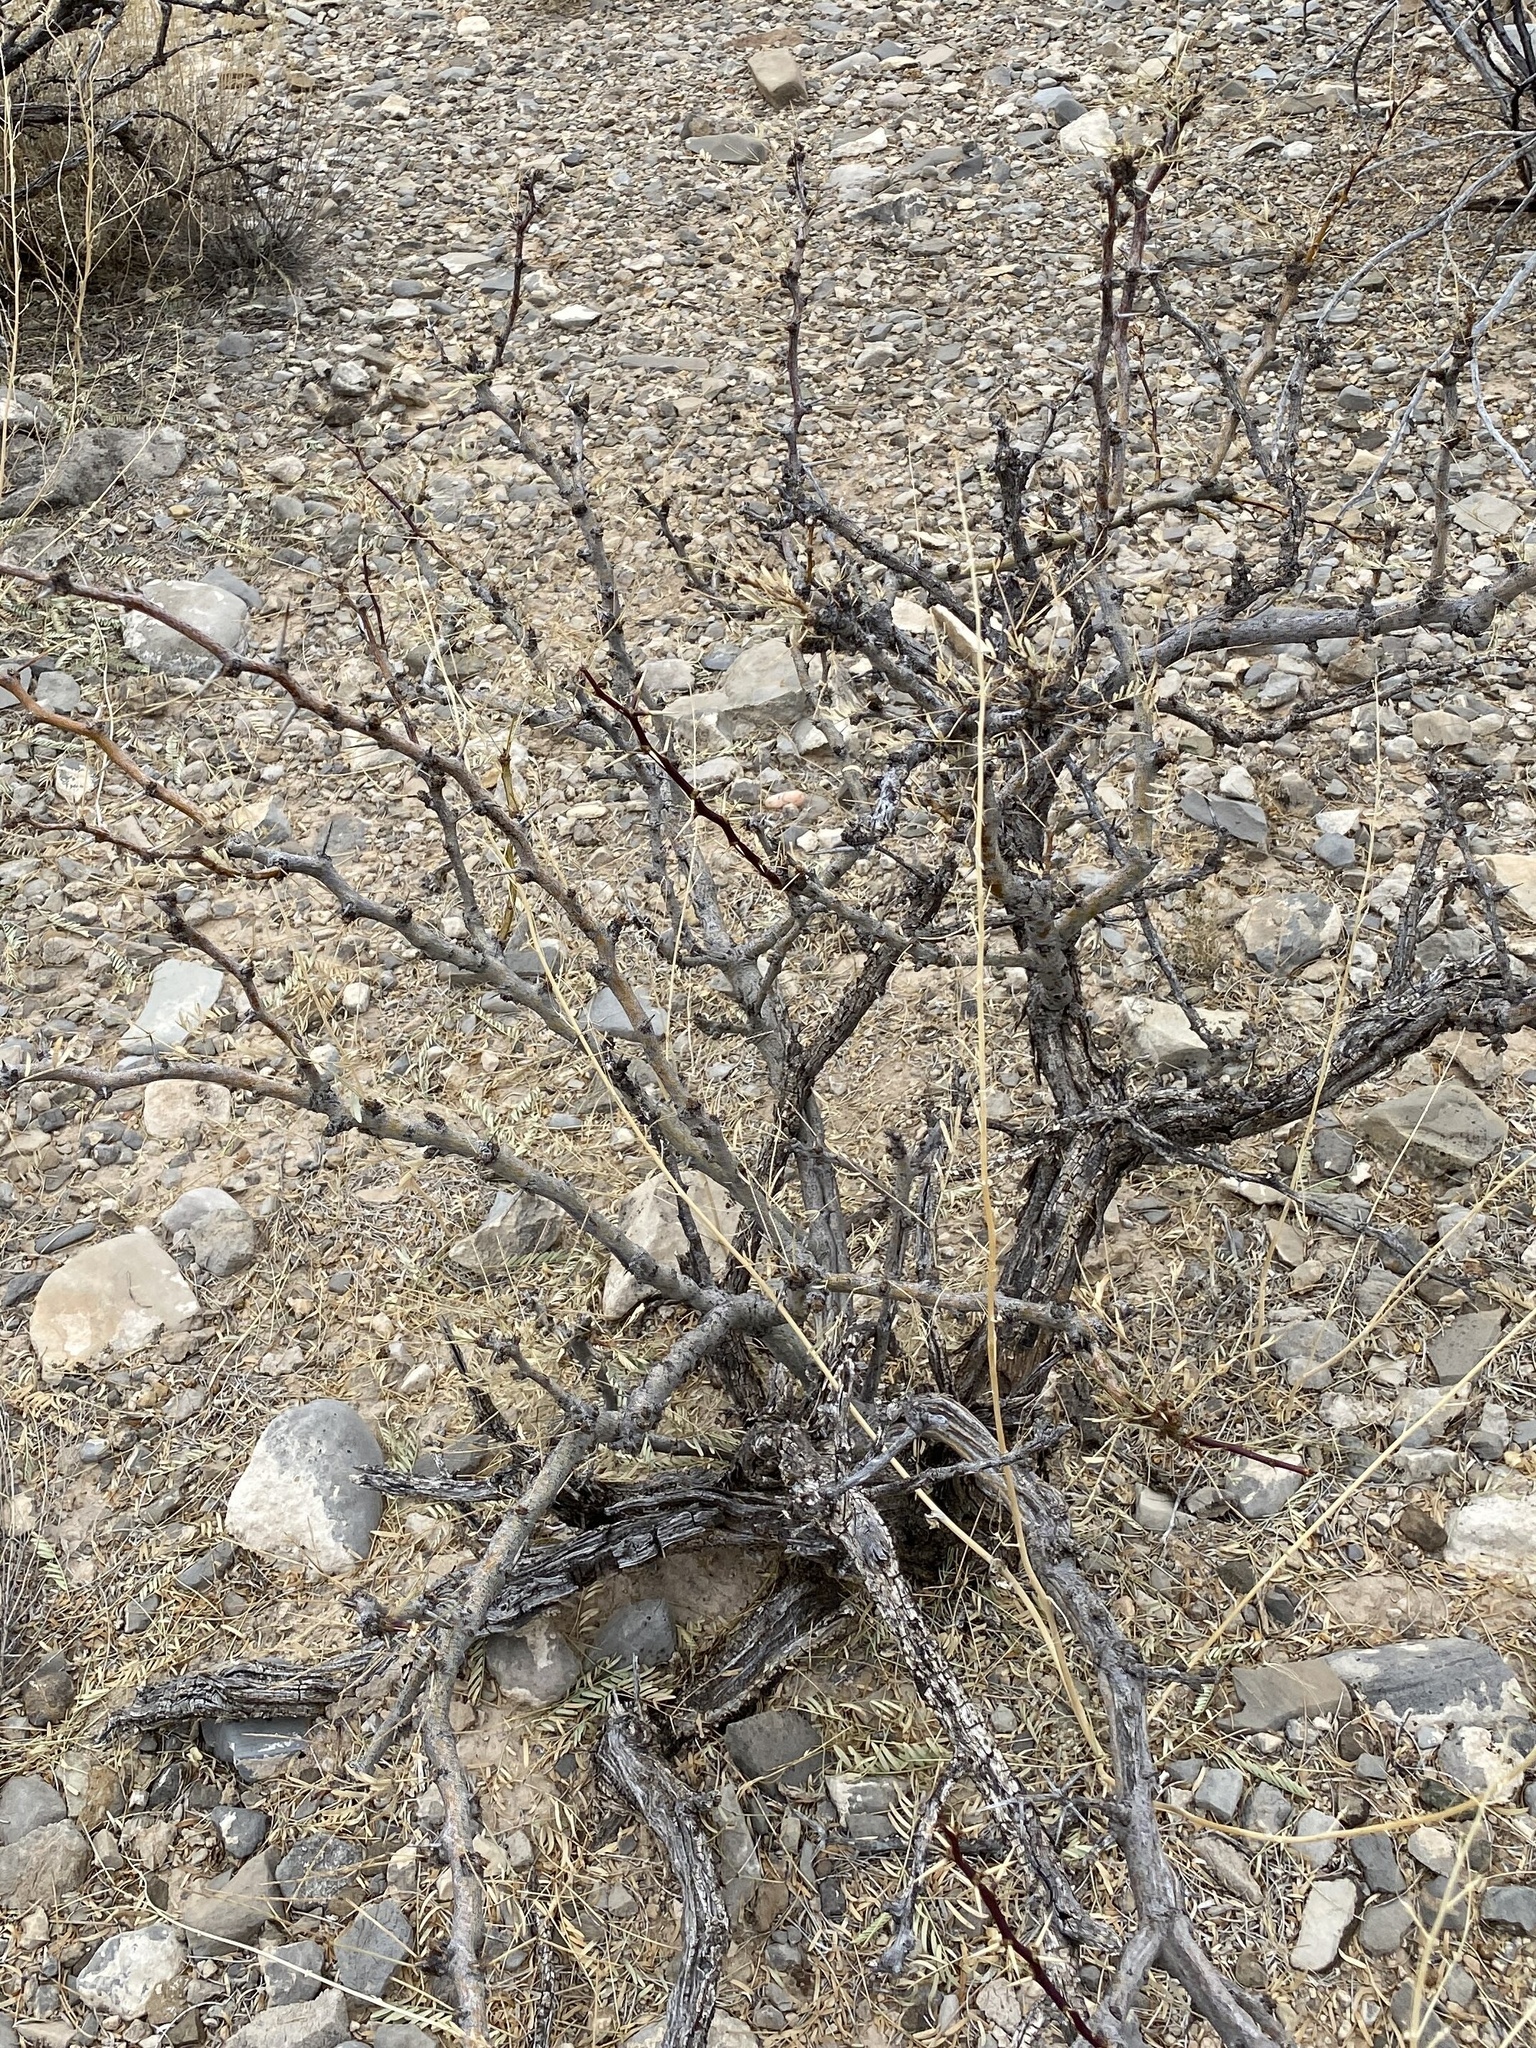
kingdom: Plantae
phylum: Tracheophyta
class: Magnoliopsida
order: Fabales
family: Fabaceae
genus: Prosopis
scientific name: Prosopis glandulosa
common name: Honey mesquite
